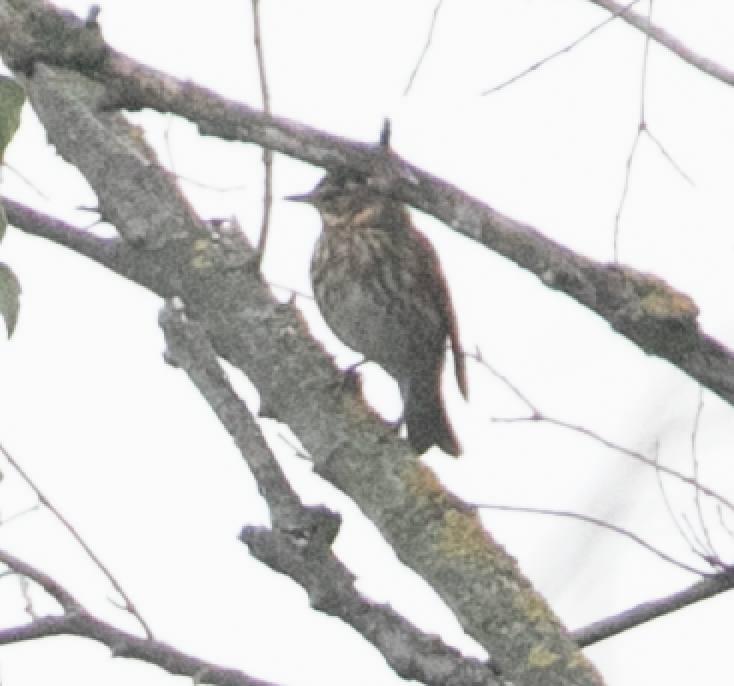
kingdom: Animalia
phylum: Chordata
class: Aves
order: Passeriformes
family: Turdidae
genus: Turdus
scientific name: Turdus iliacus
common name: Redwing
